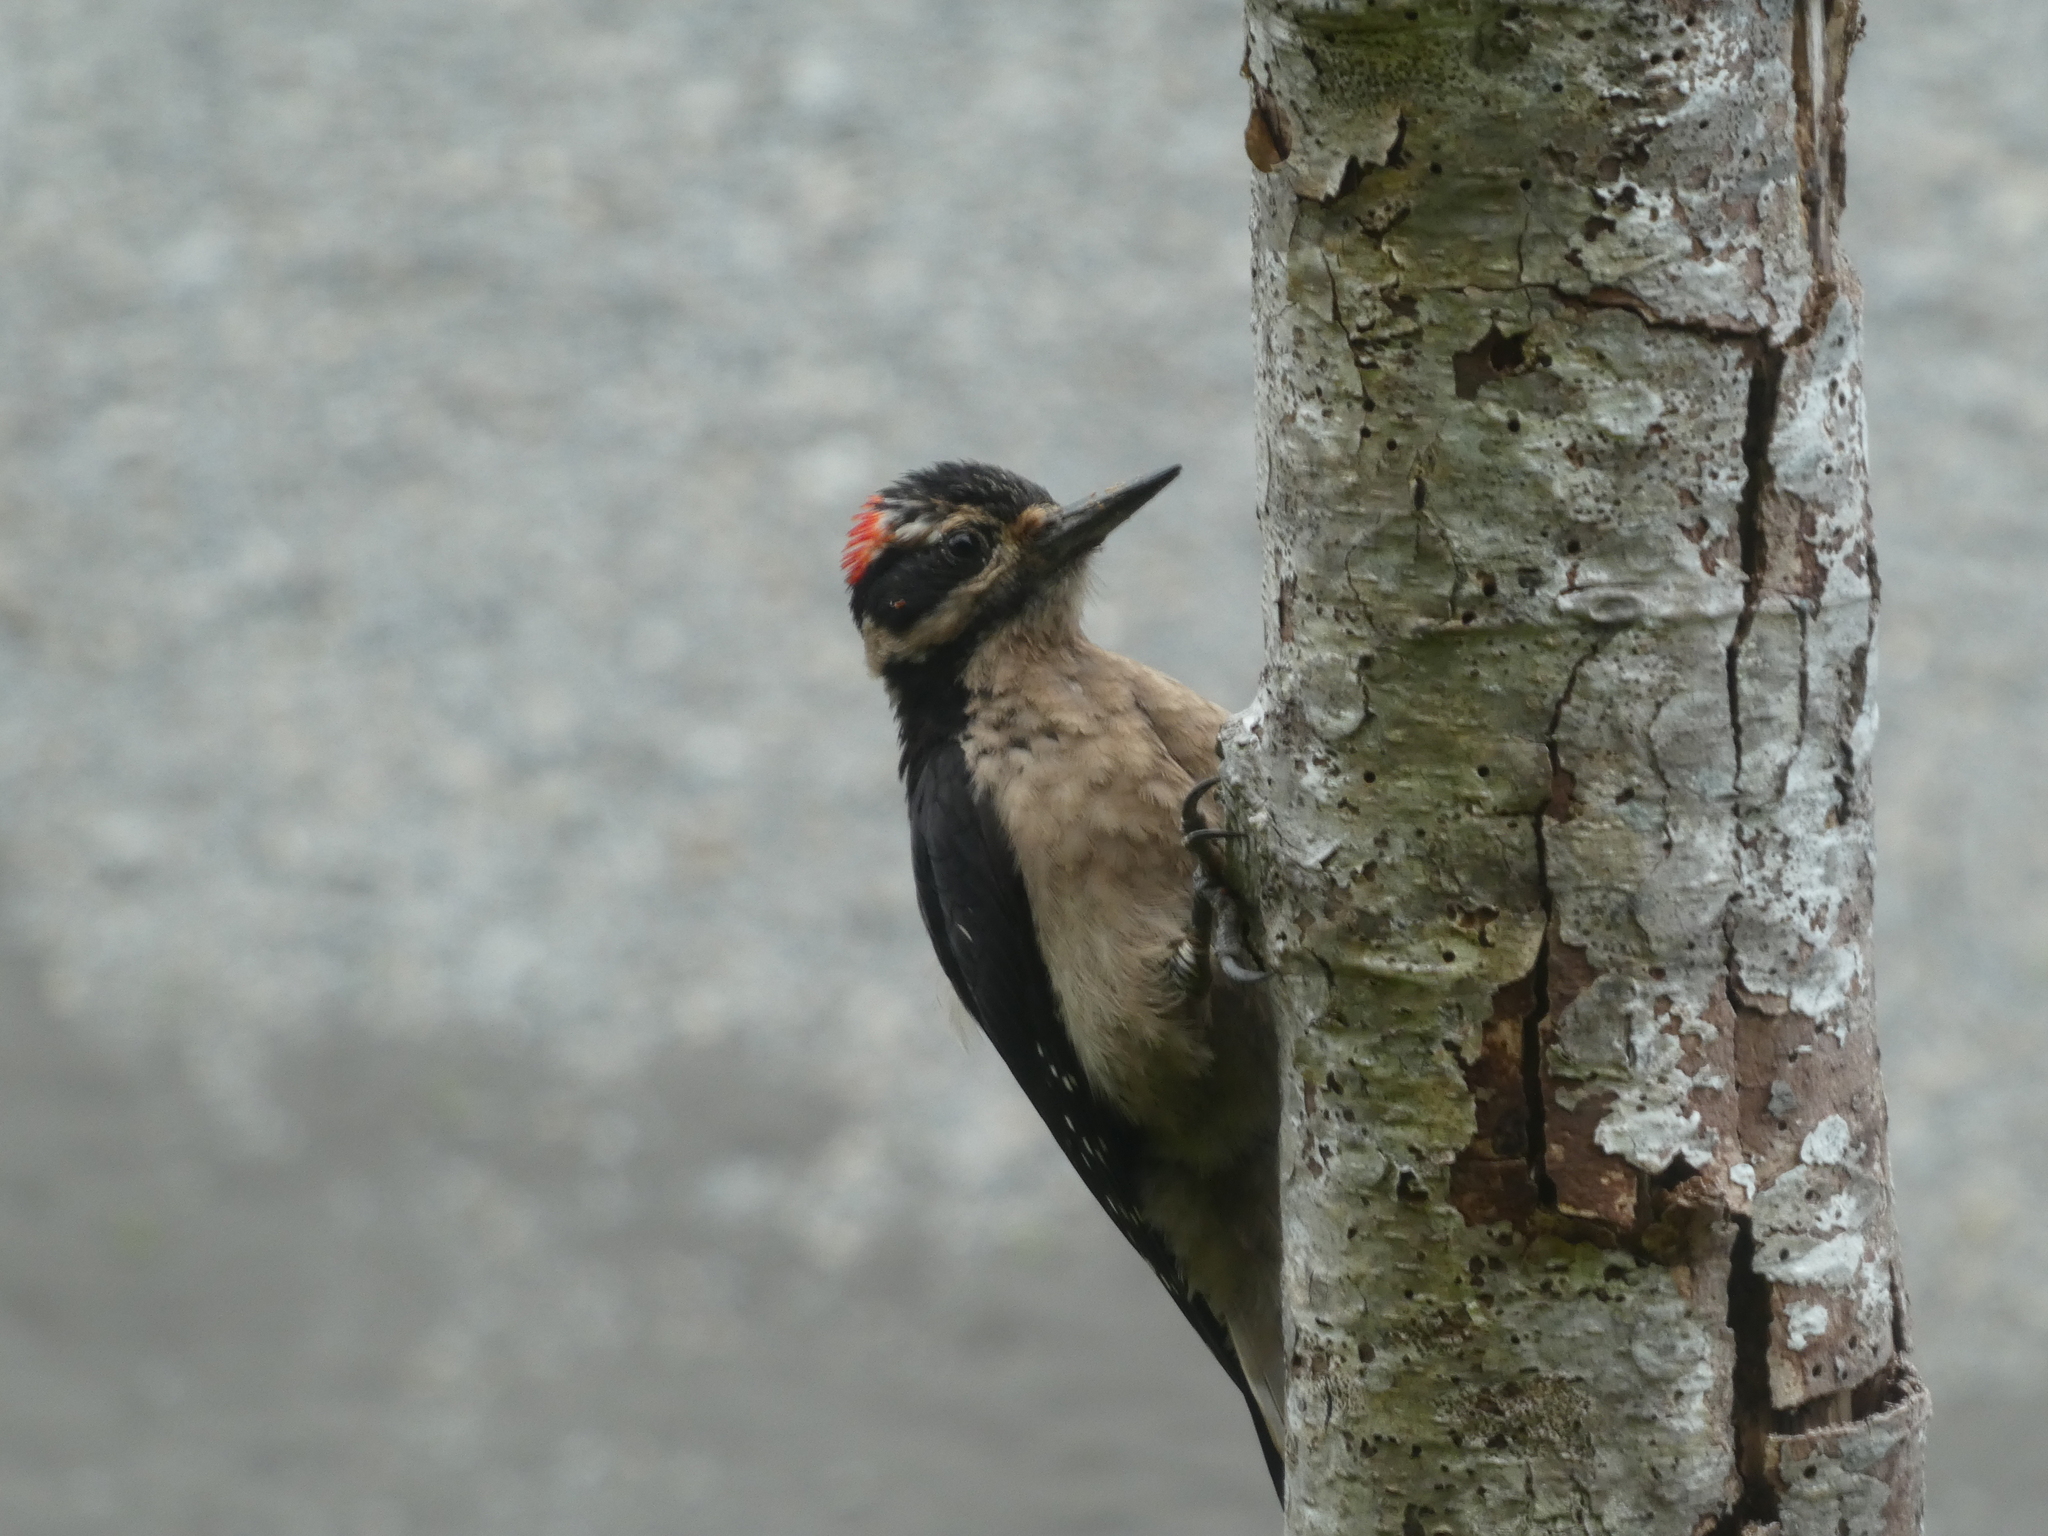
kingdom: Animalia
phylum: Chordata
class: Aves
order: Piciformes
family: Picidae
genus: Leuconotopicus
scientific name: Leuconotopicus villosus
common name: Hairy woodpecker
